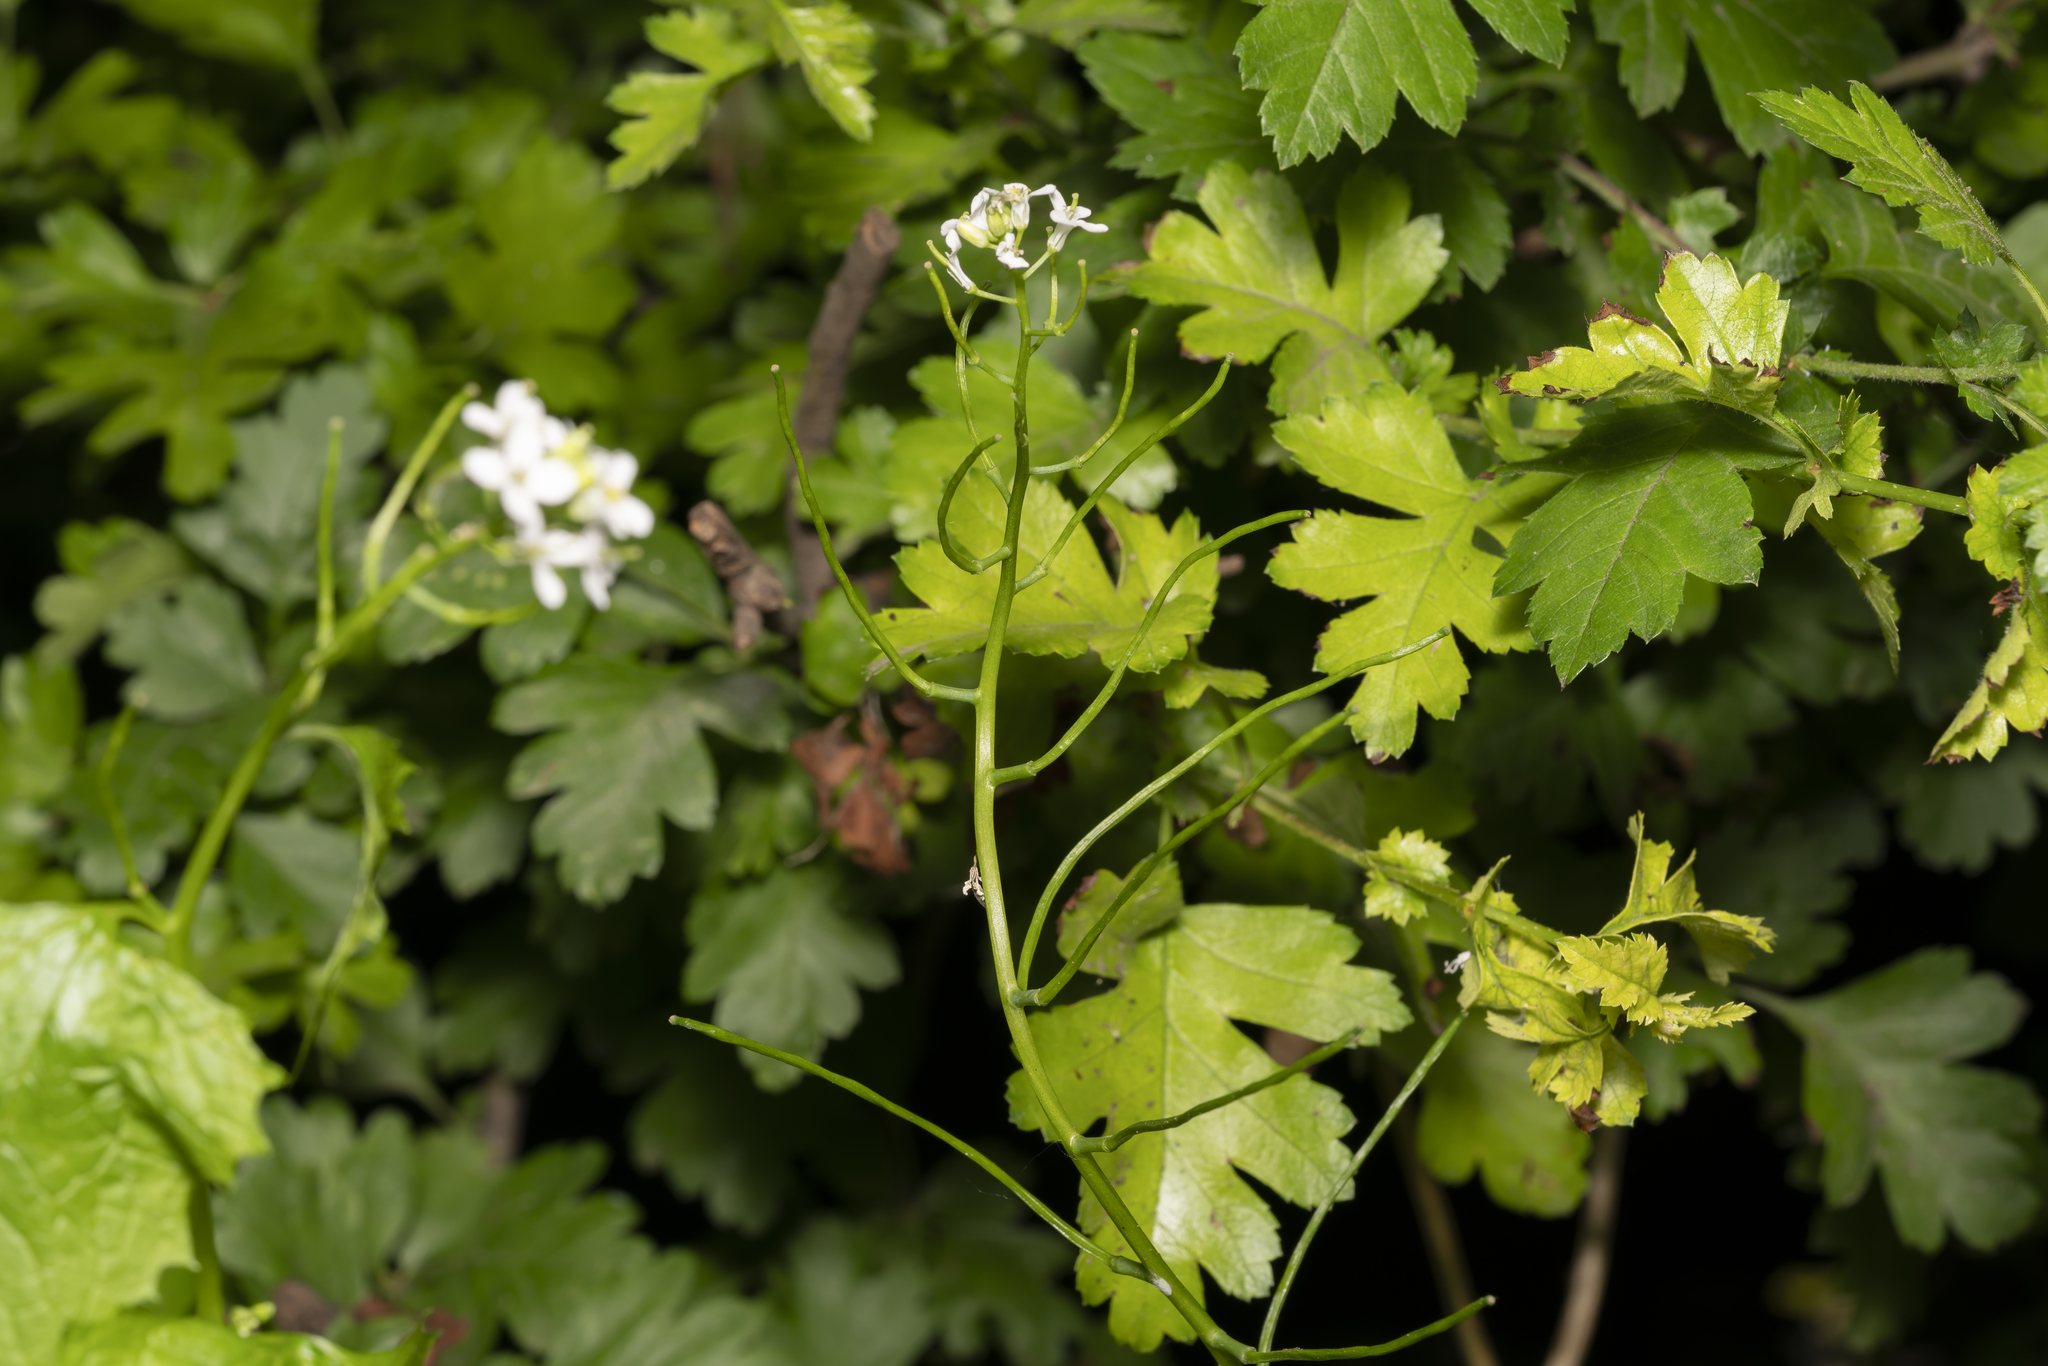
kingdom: Plantae
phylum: Tracheophyta
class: Magnoliopsida
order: Brassicales
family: Brassicaceae
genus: Alliaria
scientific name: Alliaria petiolata
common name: Garlic mustard
